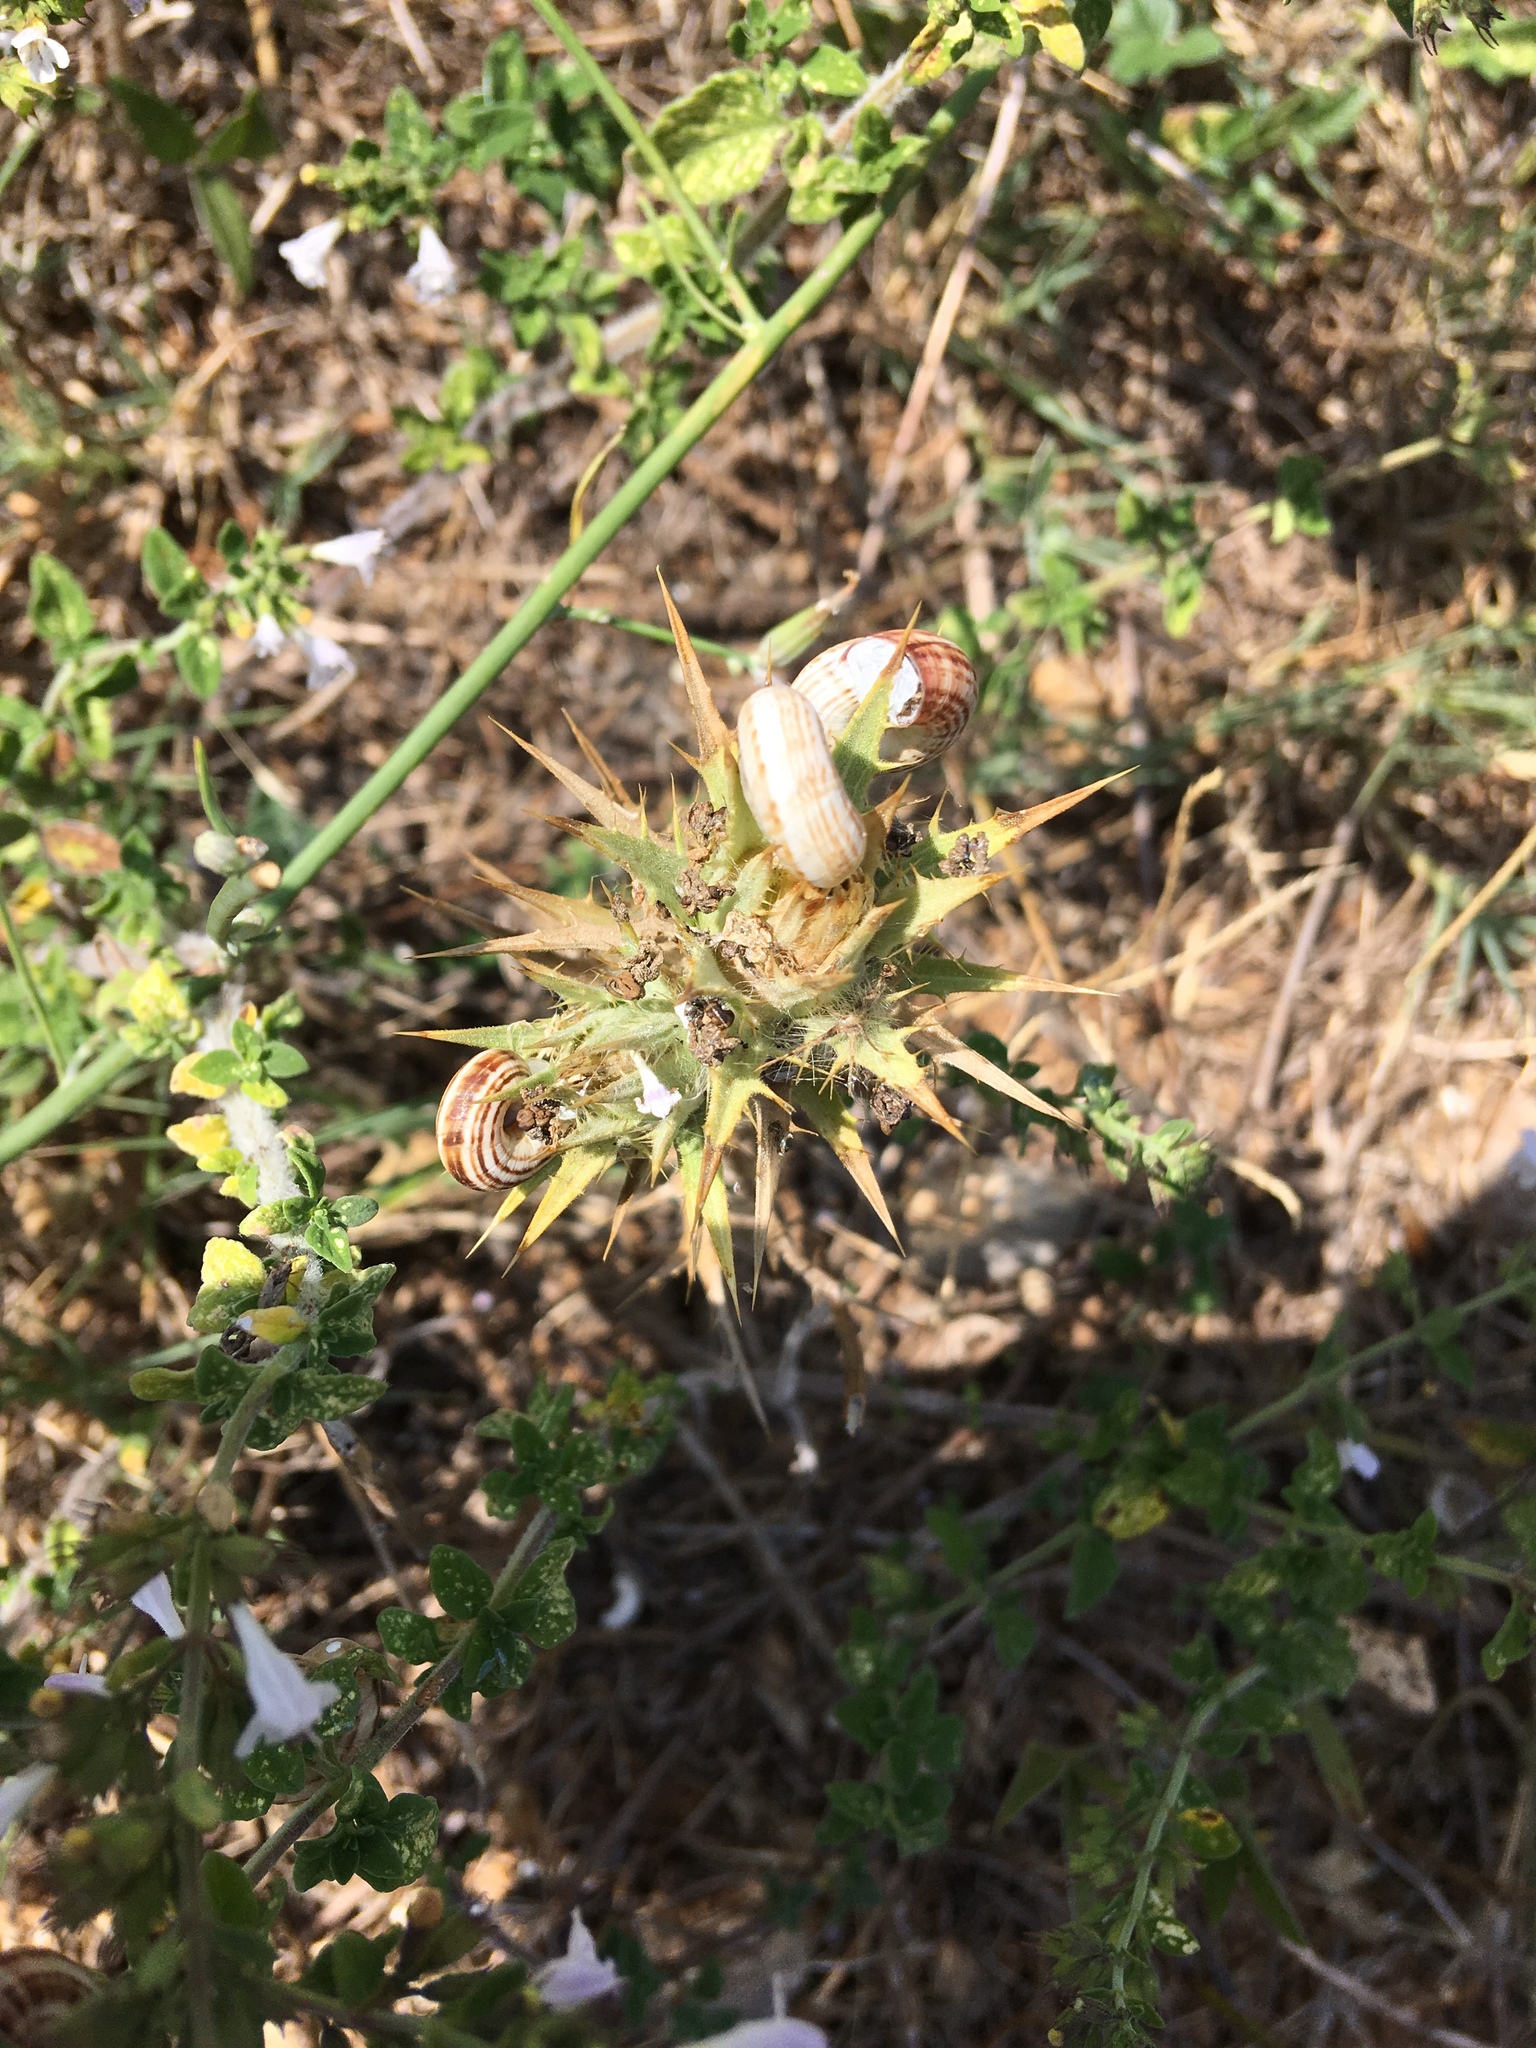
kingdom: Plantae
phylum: Tracheophyta
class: Magnoliopsida
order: Asterales
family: Asteraceae
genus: Carthamus
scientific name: Carthamus lanatus
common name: Downy safflower
